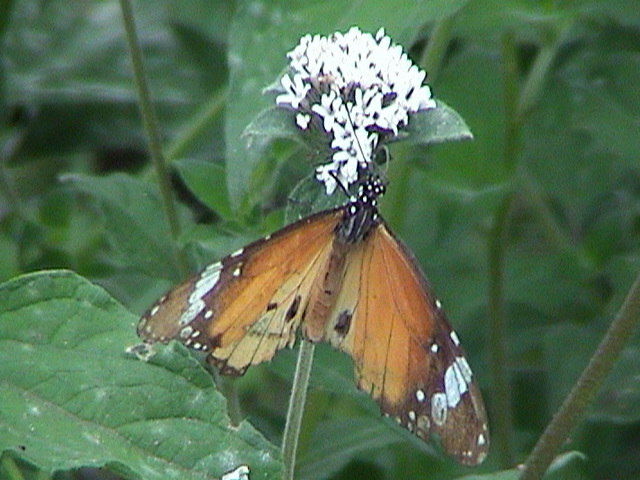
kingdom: Animalia
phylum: Arthropoda
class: Insecta
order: Lepidoptera
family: Nymphalidae
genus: Danaus
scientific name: Danaus chrysippus
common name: Plain tiger
